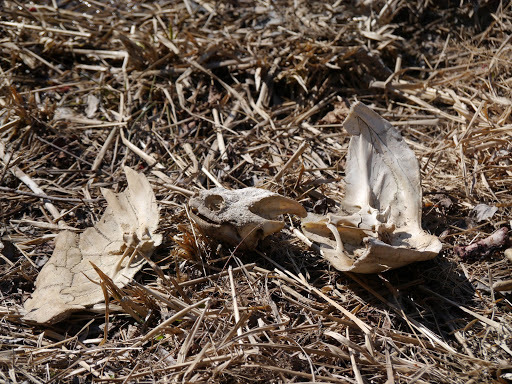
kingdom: Animalia
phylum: Chordata
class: Testudines
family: Chelydridae
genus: Chelydra
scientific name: Chelydra serpentina
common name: Common snapping turtle
